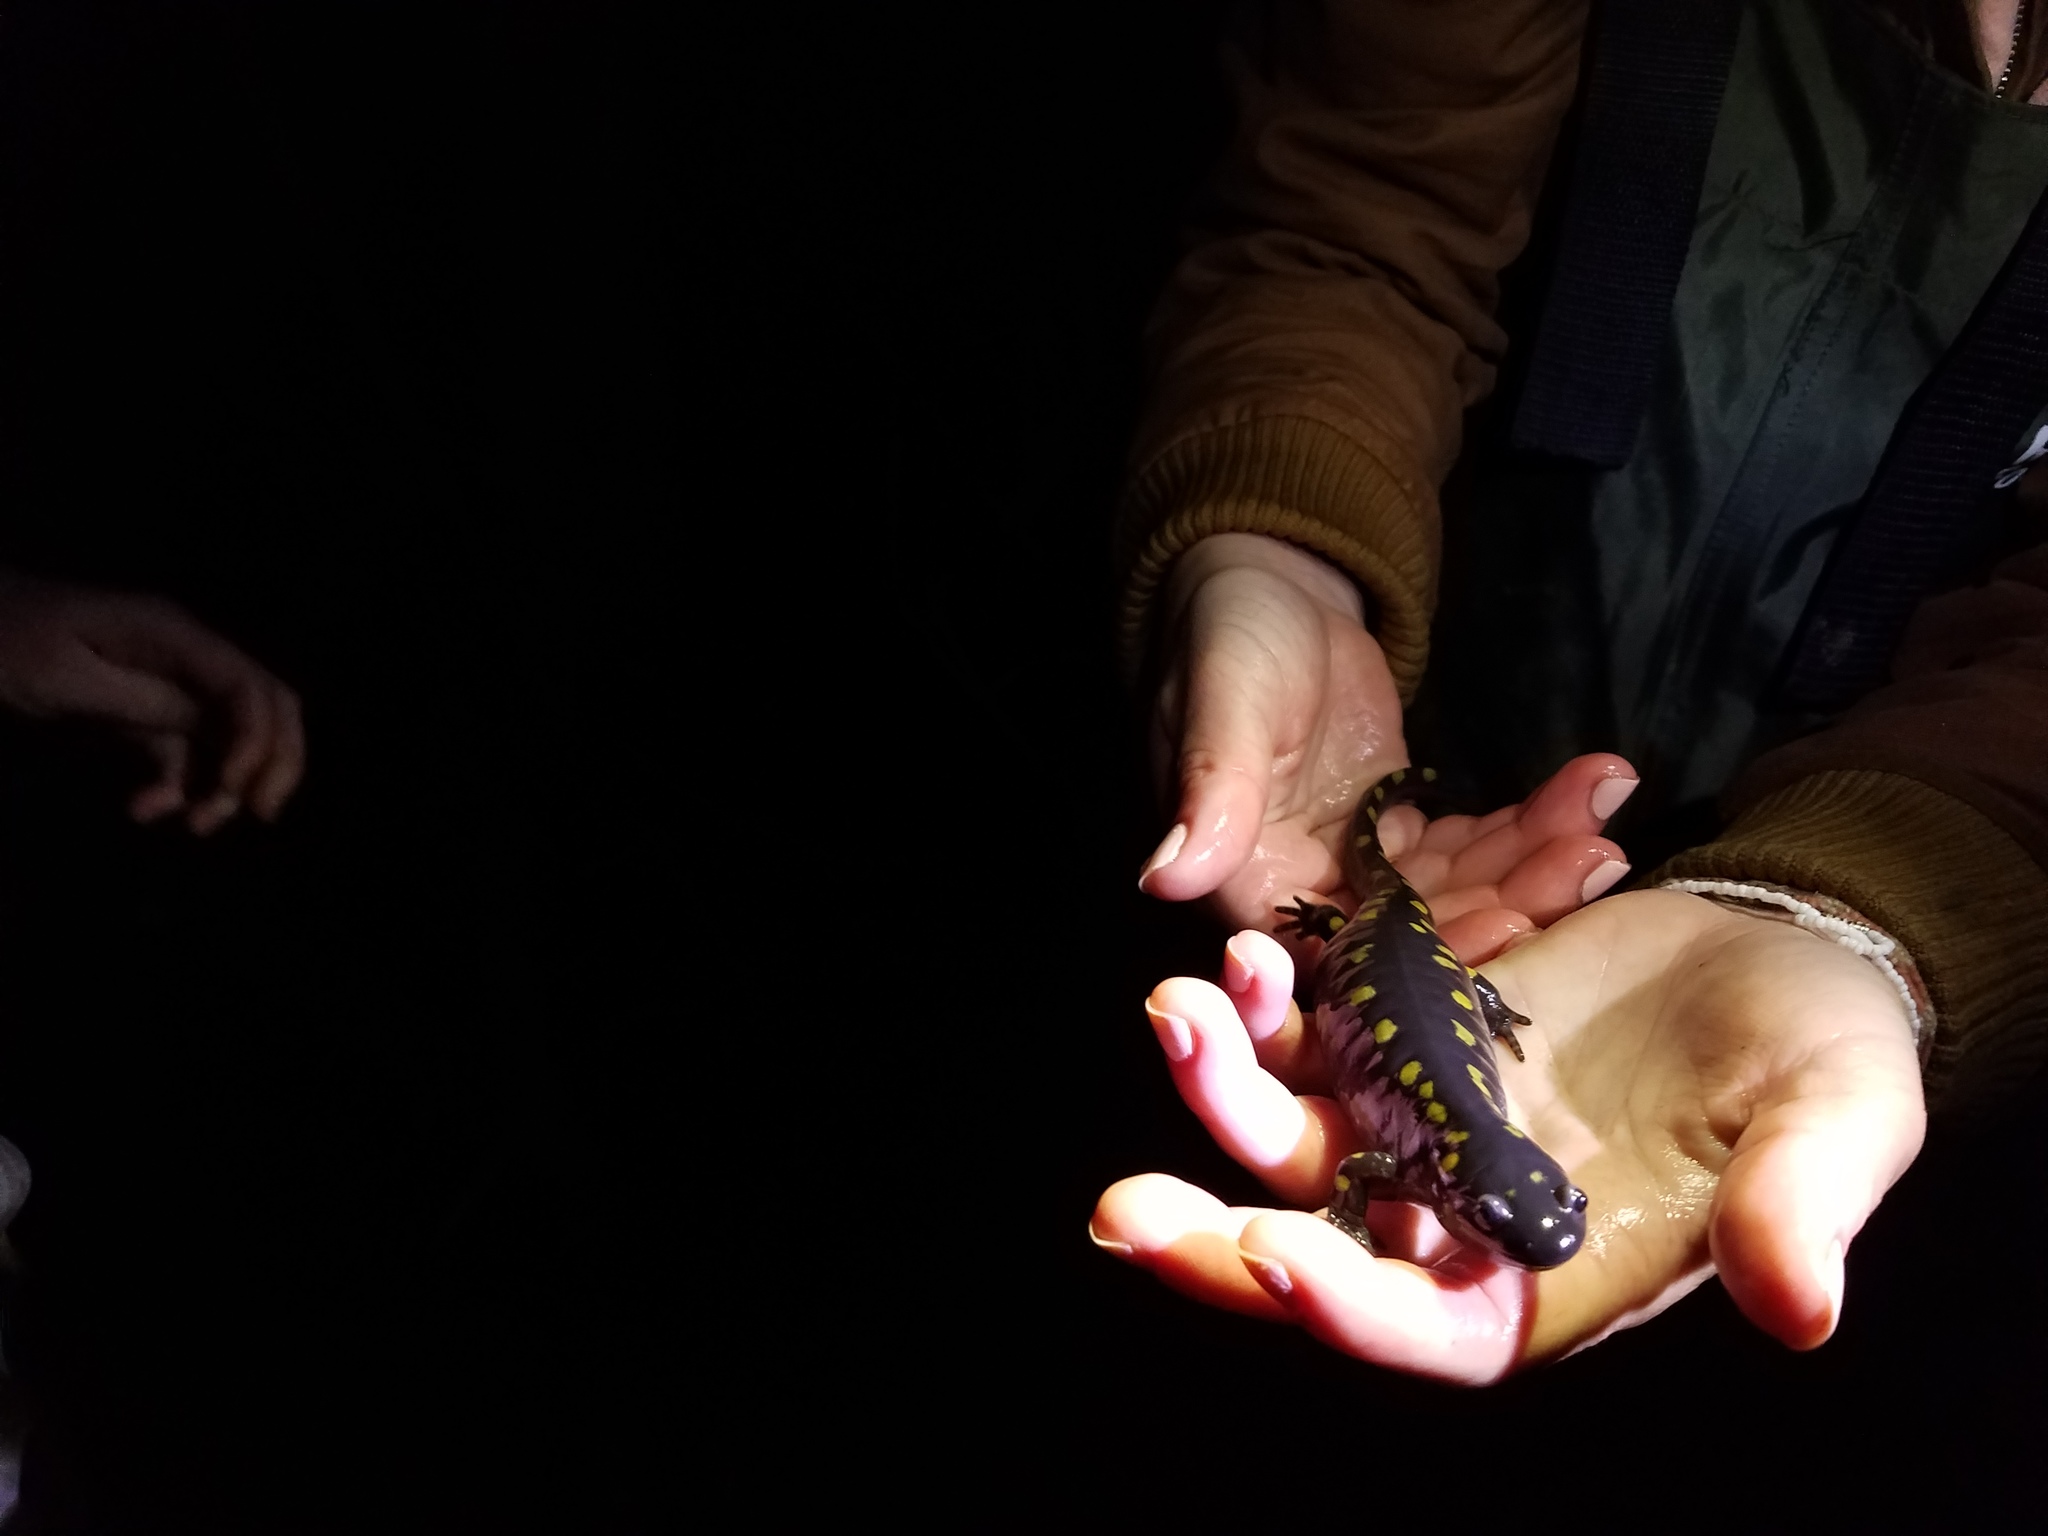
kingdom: Animalia
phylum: Chordata
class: Amphibia
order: Caudata
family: Ambystomatidae
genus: Ambystoma
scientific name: Ambystoma maculatum
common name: Spotted salamander
